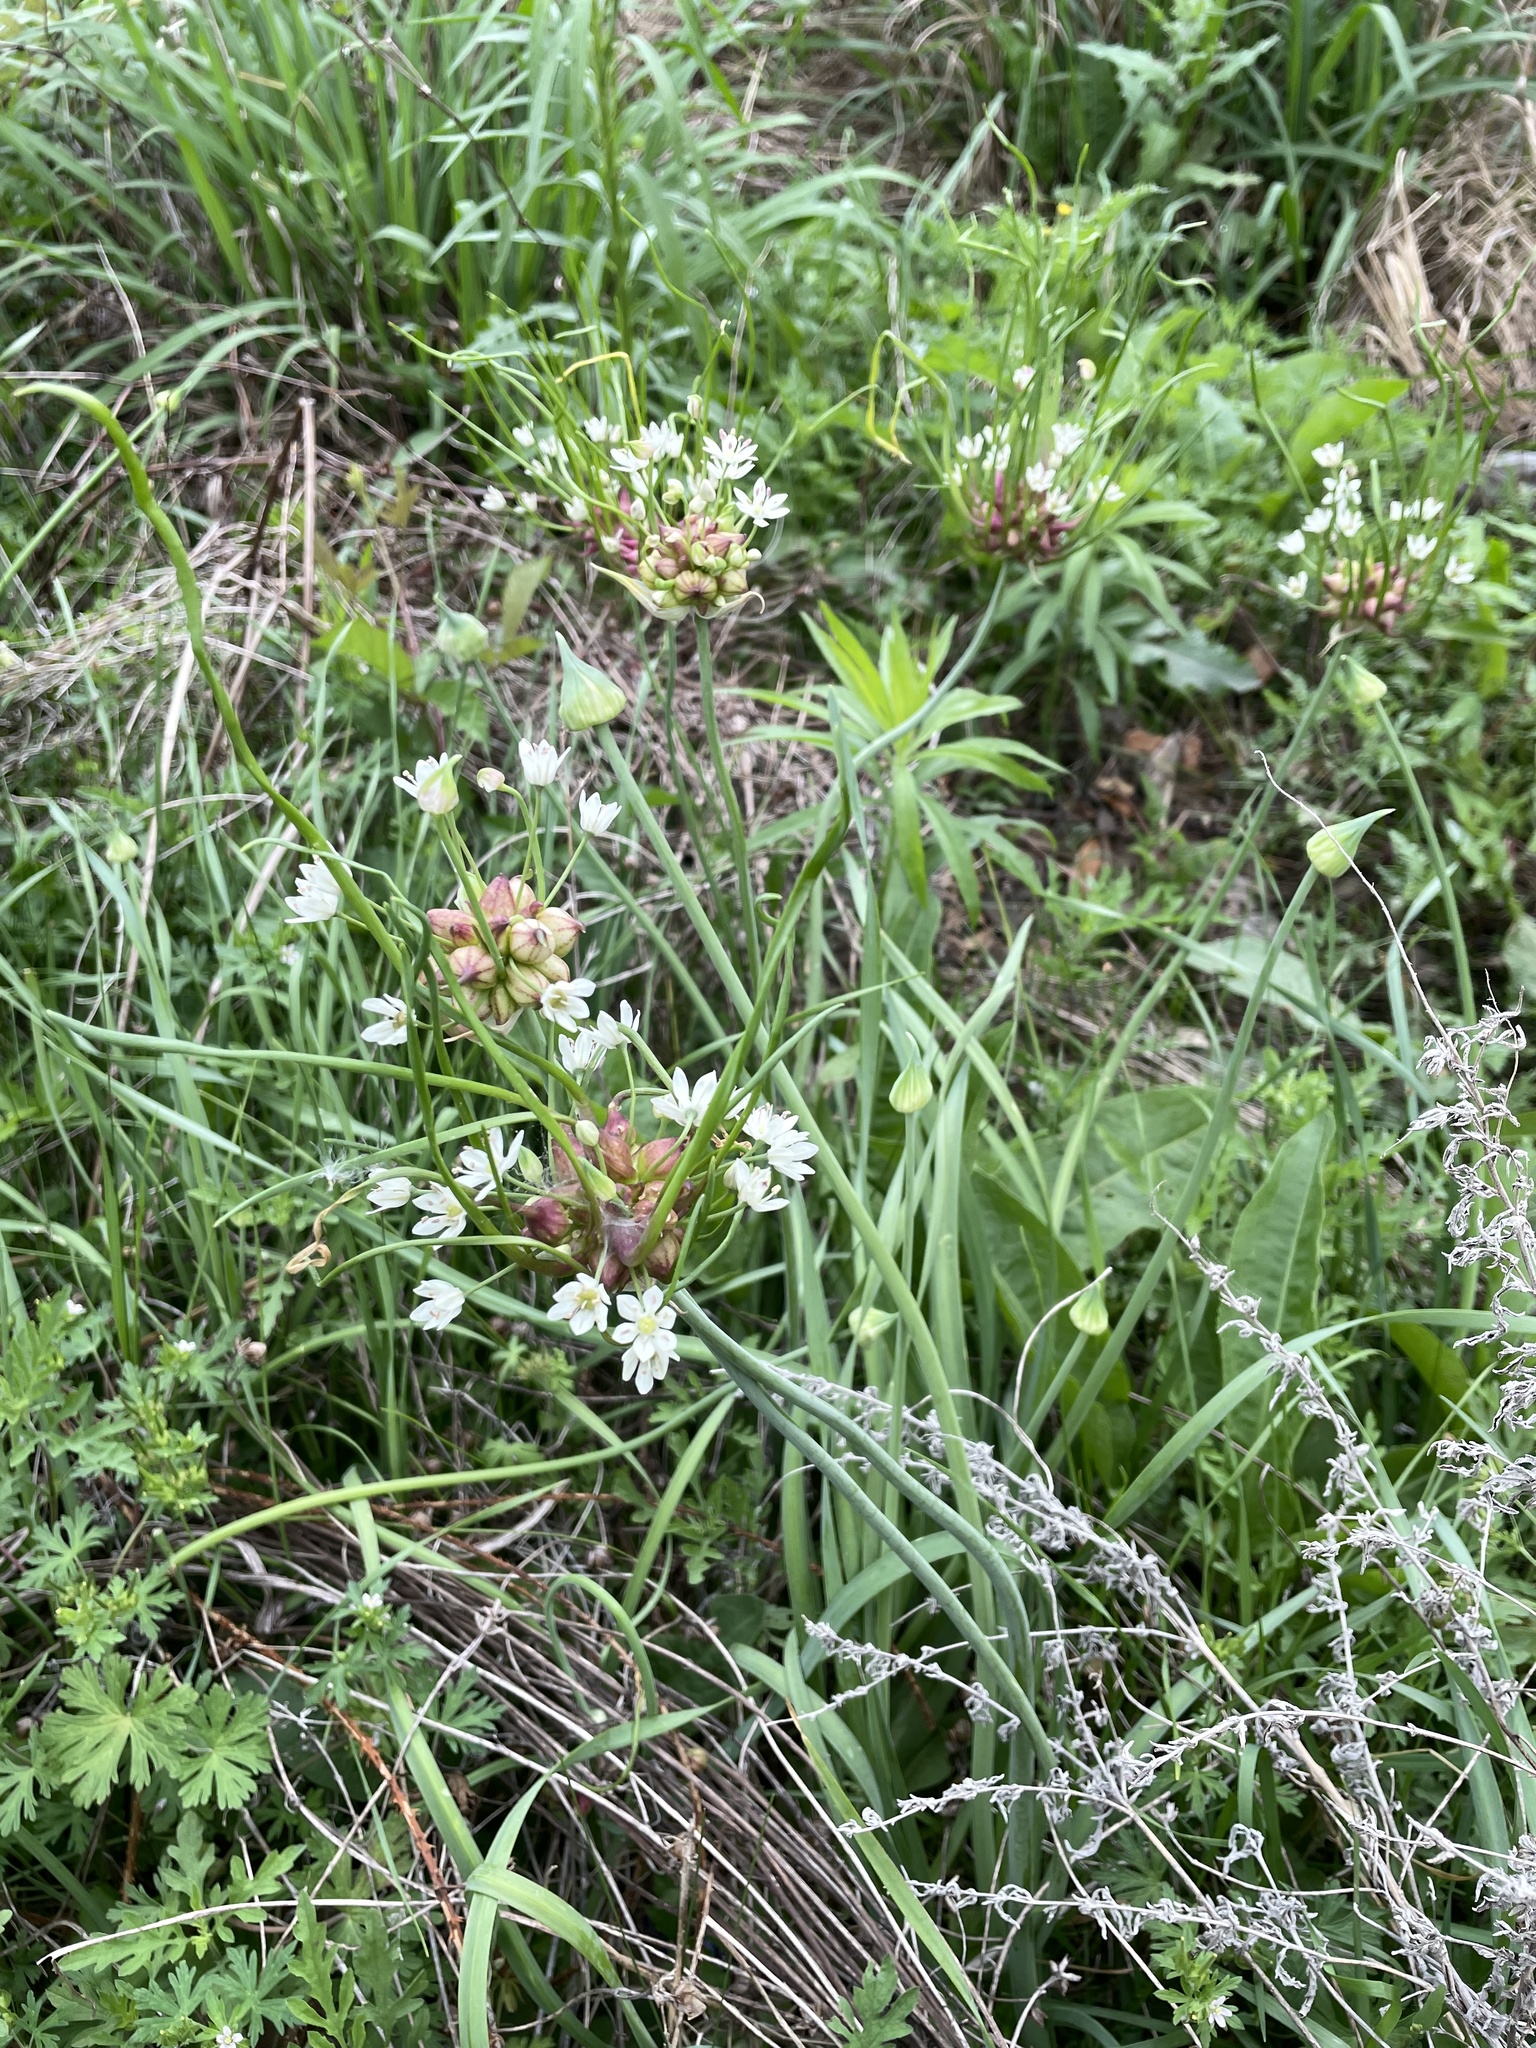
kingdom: Plantae
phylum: Tracheophyta
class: Liliopsida
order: Asparagales
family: Amaryllidaceae
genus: Allium
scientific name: Allium canadense
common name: Meadow garlic
